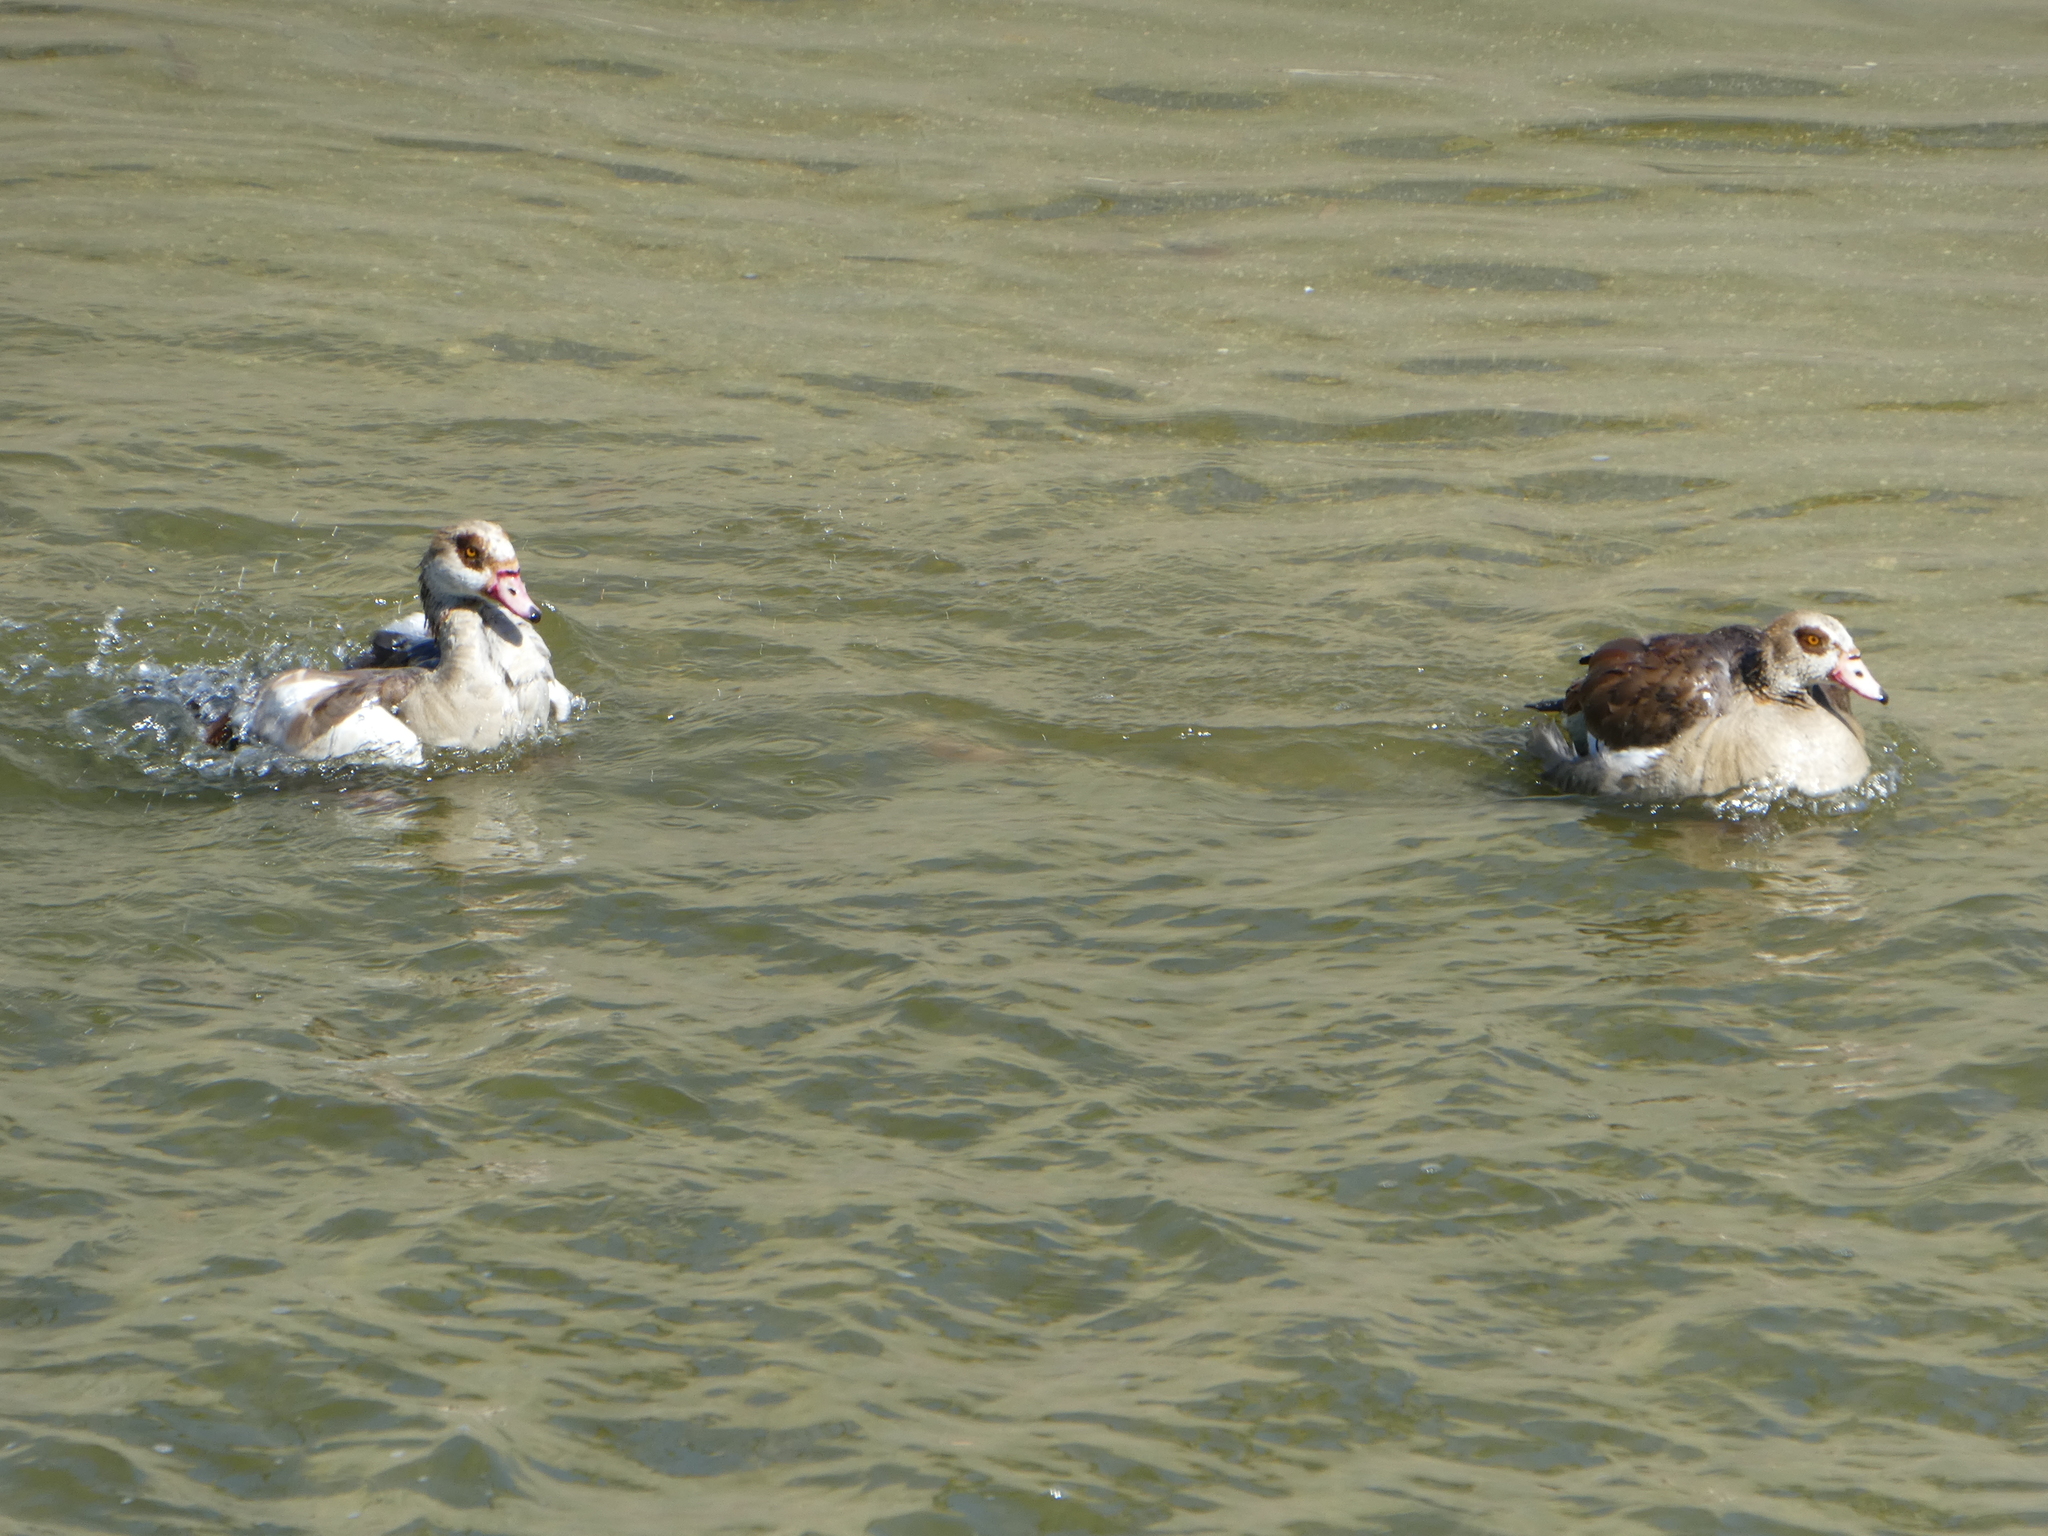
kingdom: Animalia
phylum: Chordata
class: Aves
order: Anseriformes
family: Anatidae
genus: Alopochen
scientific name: Alopochen aegyptiaca
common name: Egyptian goose
